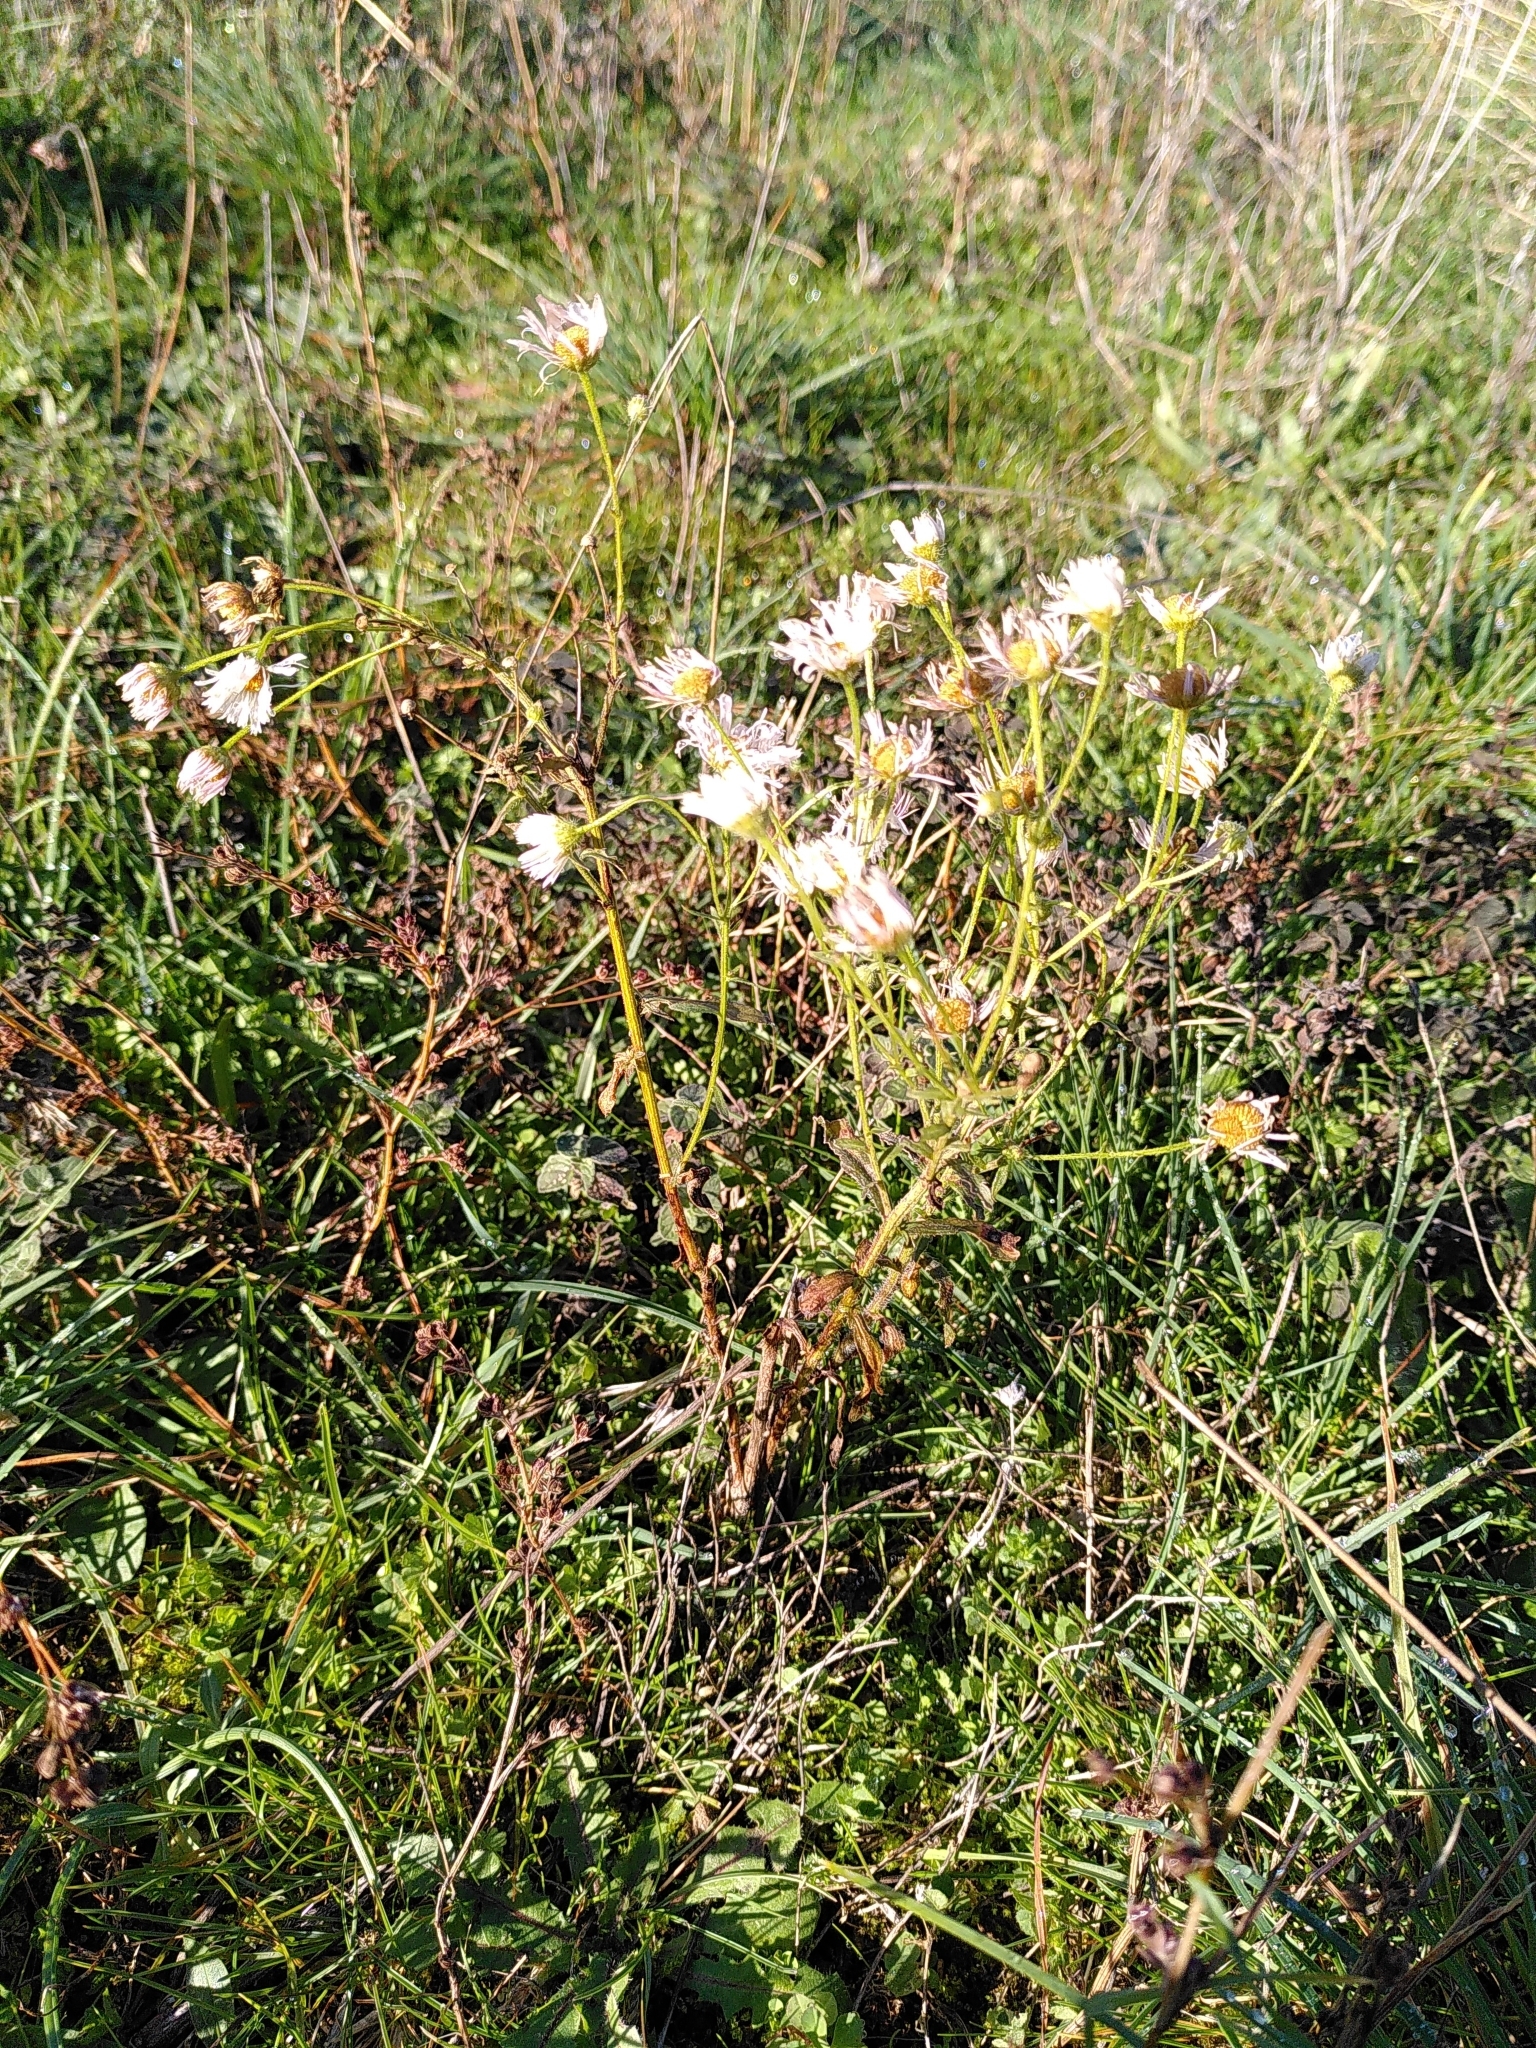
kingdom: Plantae
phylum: Tracheophyta
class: Magnoliopsida
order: Asterales
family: Asteraceae
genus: Erigeron
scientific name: Erigeron annuus
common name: Tall fleabane
